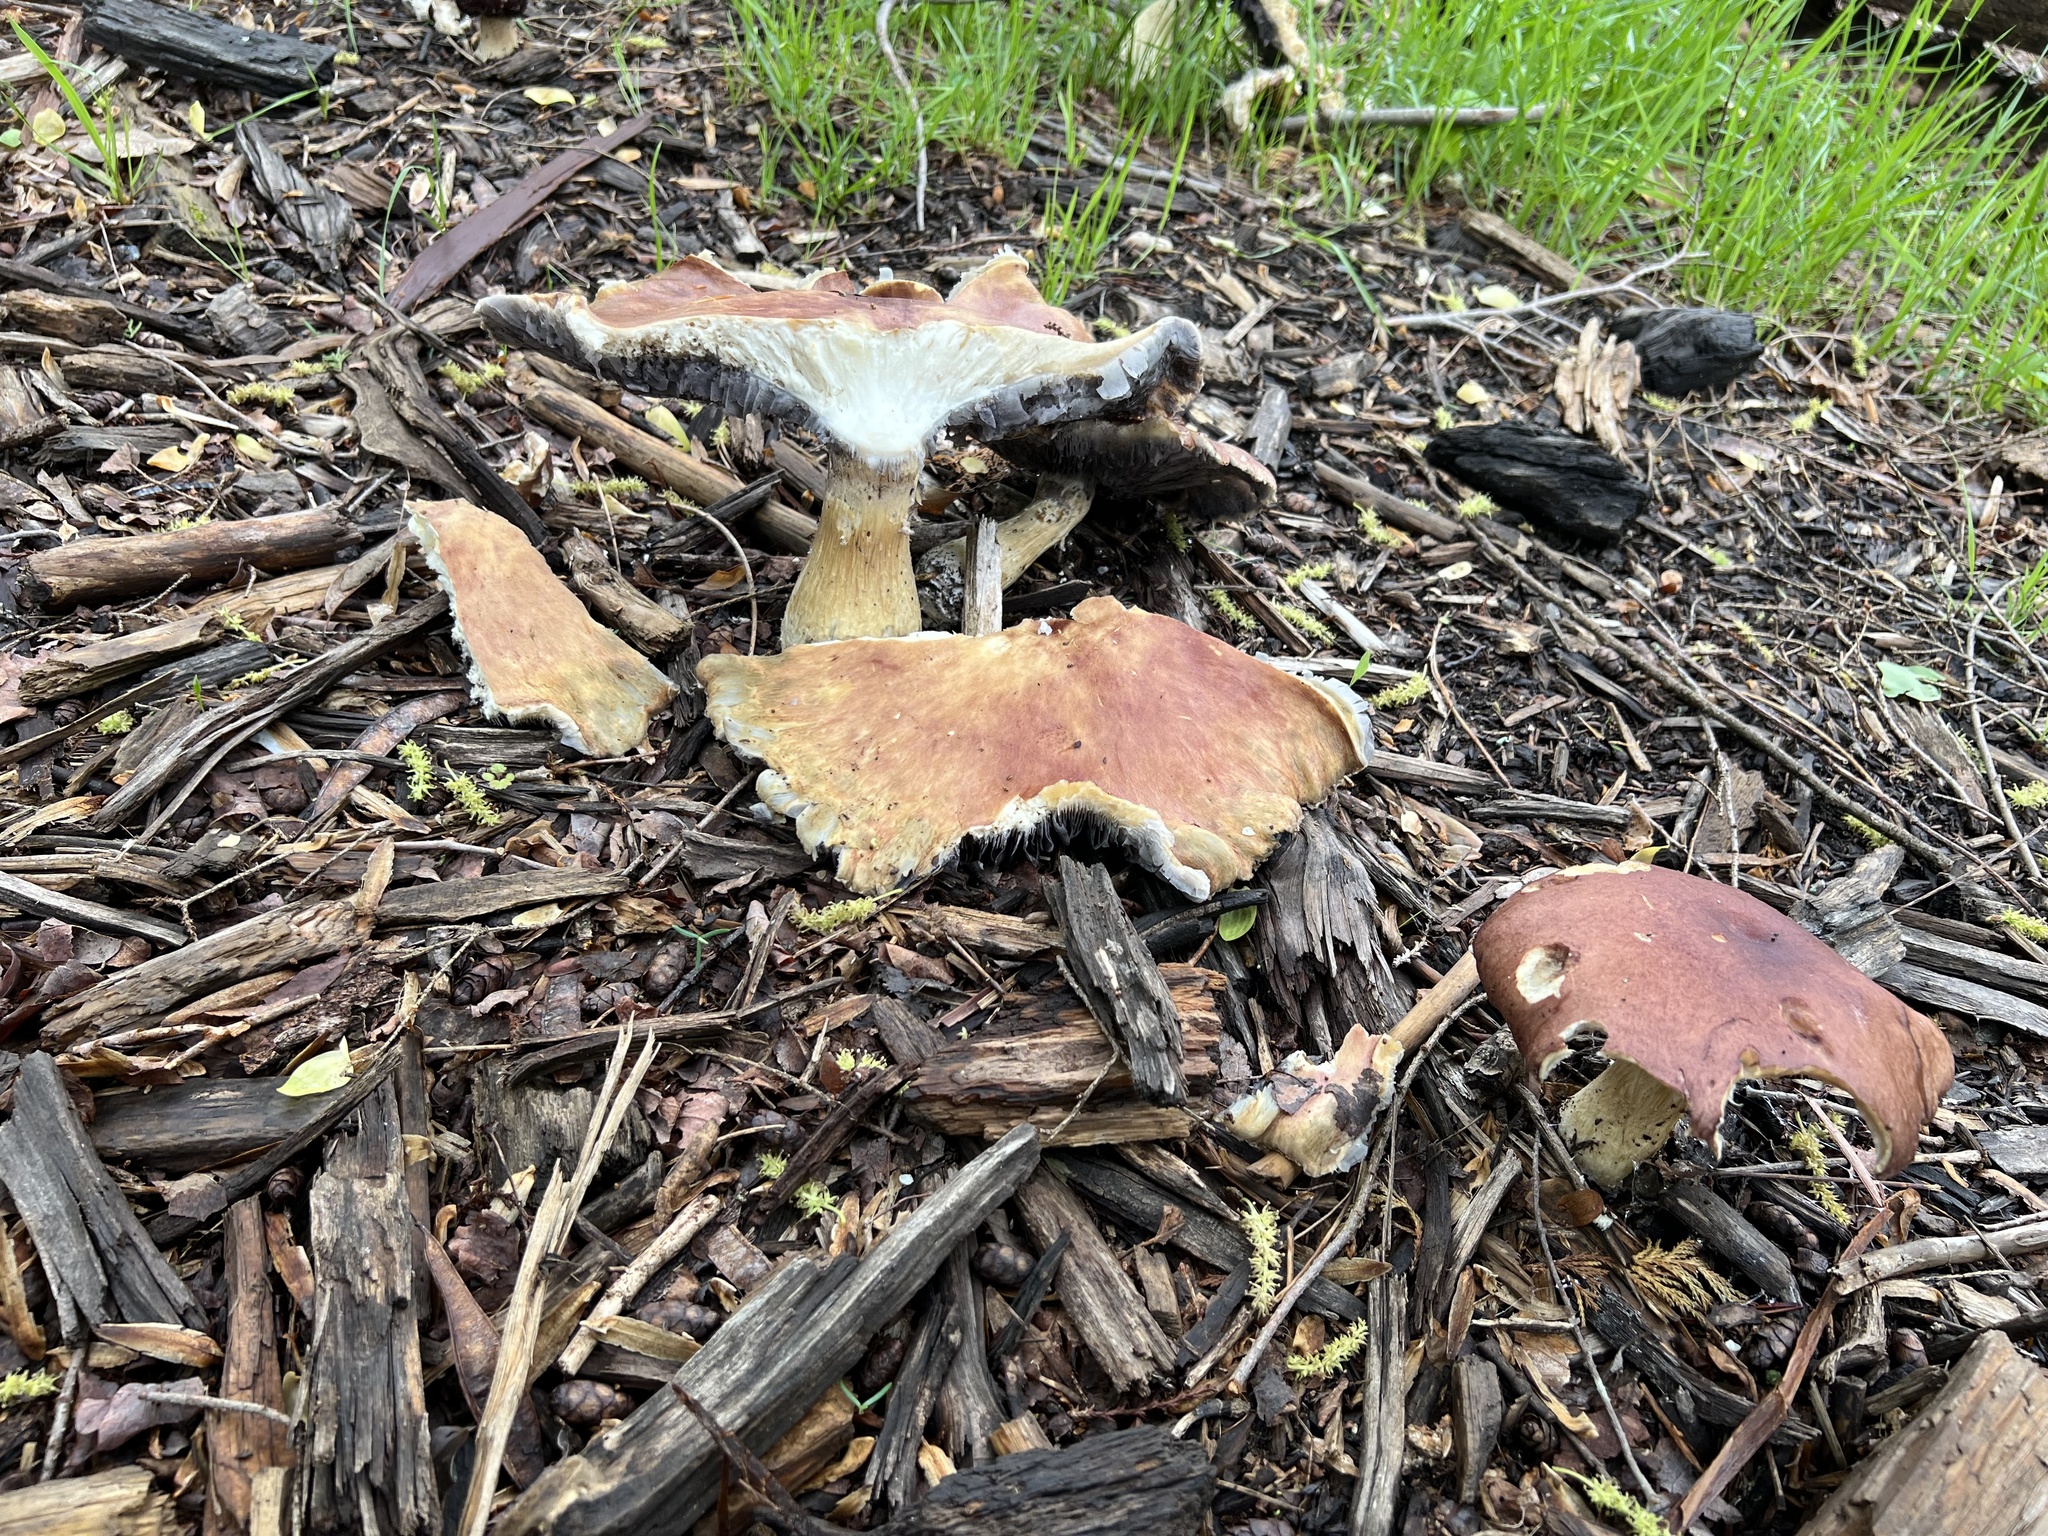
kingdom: Fungi
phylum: Basidiomycota
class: Agaricomycetes
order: Agaricales
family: Strophariaceae
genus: Stropharia
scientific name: Stropharia rugosoannulata
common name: Wine roundhead
